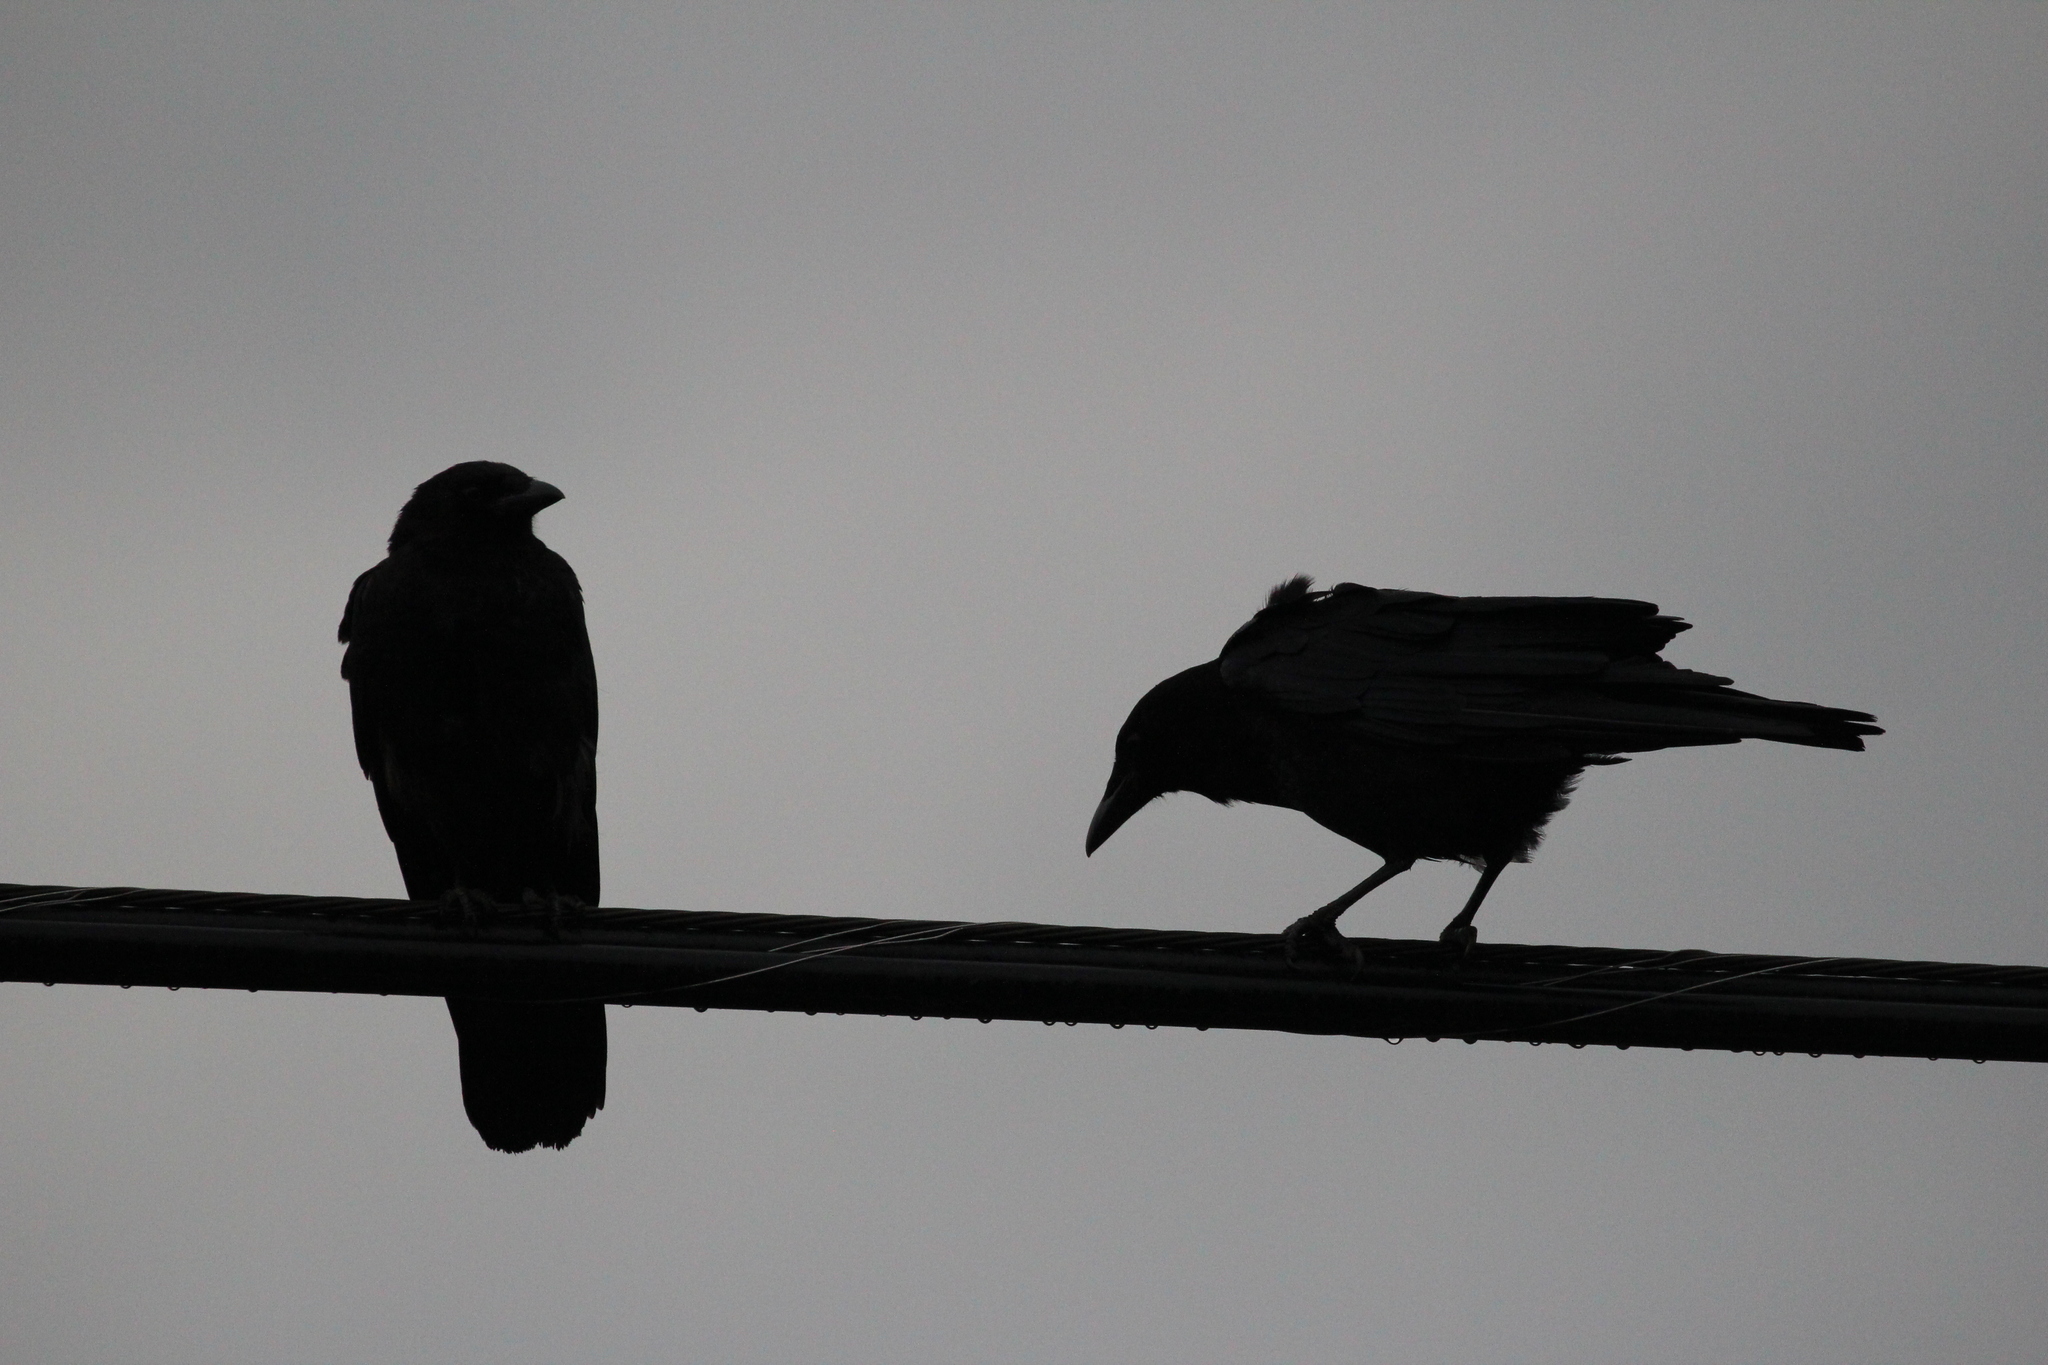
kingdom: Animalia
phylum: Chordata
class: Aves
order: Passeriformes
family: Corvidae
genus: Corvus
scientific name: Corvus brachyrhynchos
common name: American crow
